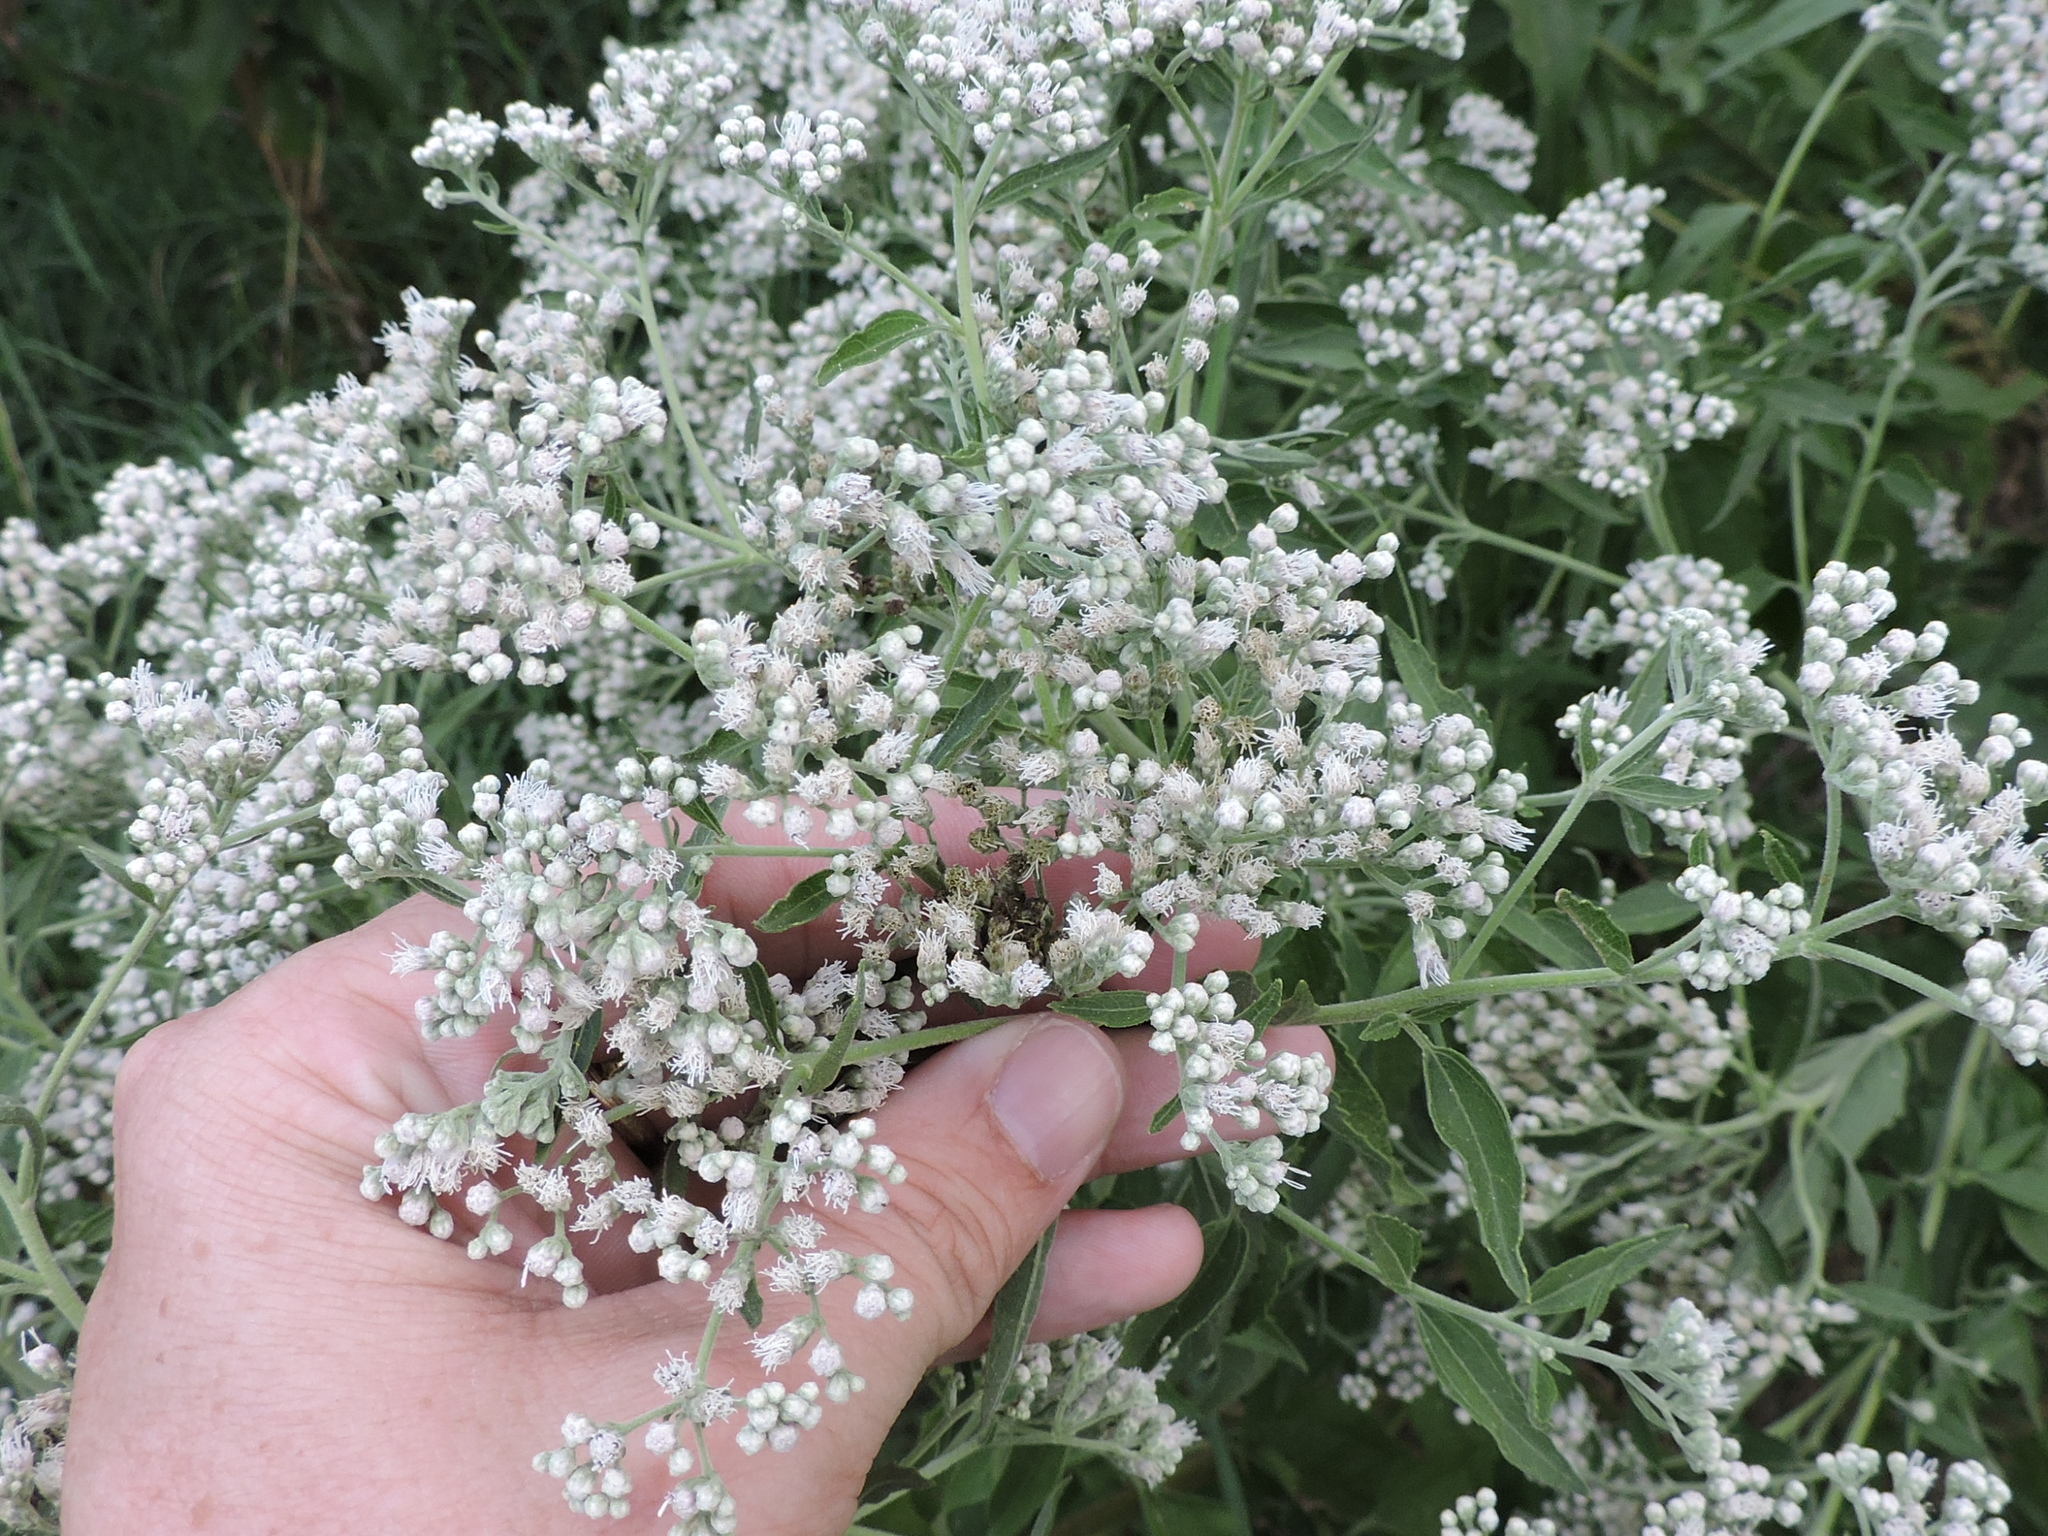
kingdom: Plantae
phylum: Tracheophyta
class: Magnoliopsida
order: Asterales
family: Asteraceae
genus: Eupatorium
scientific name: Eupatorium serotinum
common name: Late boneset
